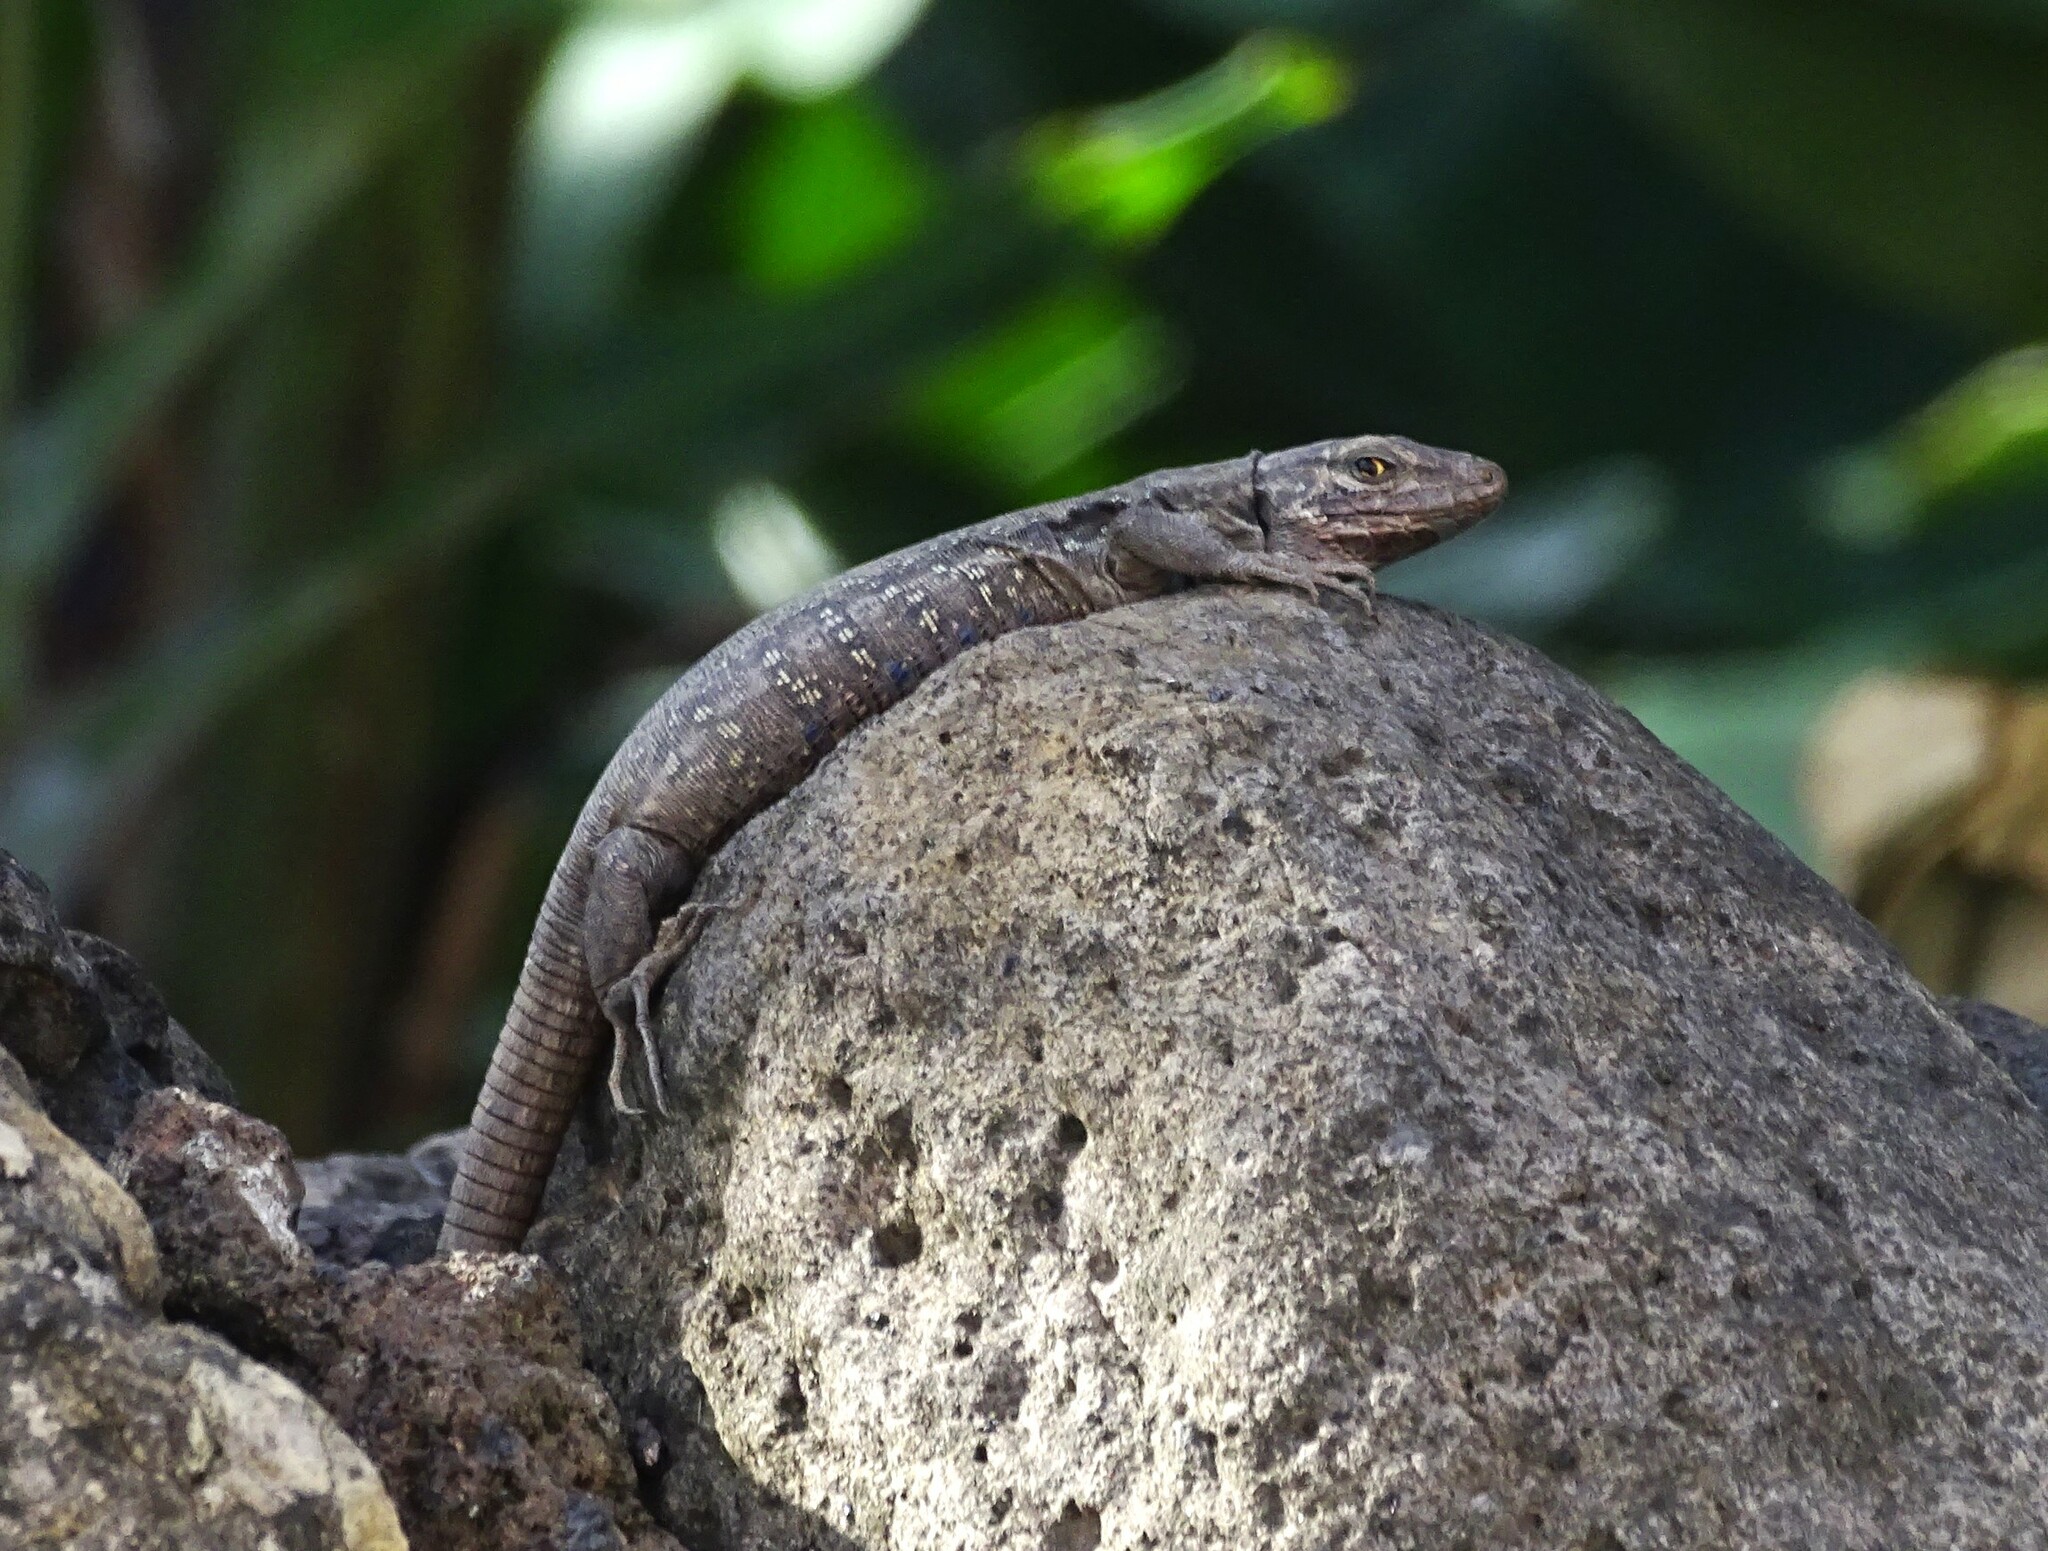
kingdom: Animalia
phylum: Chordata
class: Squamata
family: Lacertidae
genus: Gallotia
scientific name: Gallotia galloti
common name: Gallot's lizard
